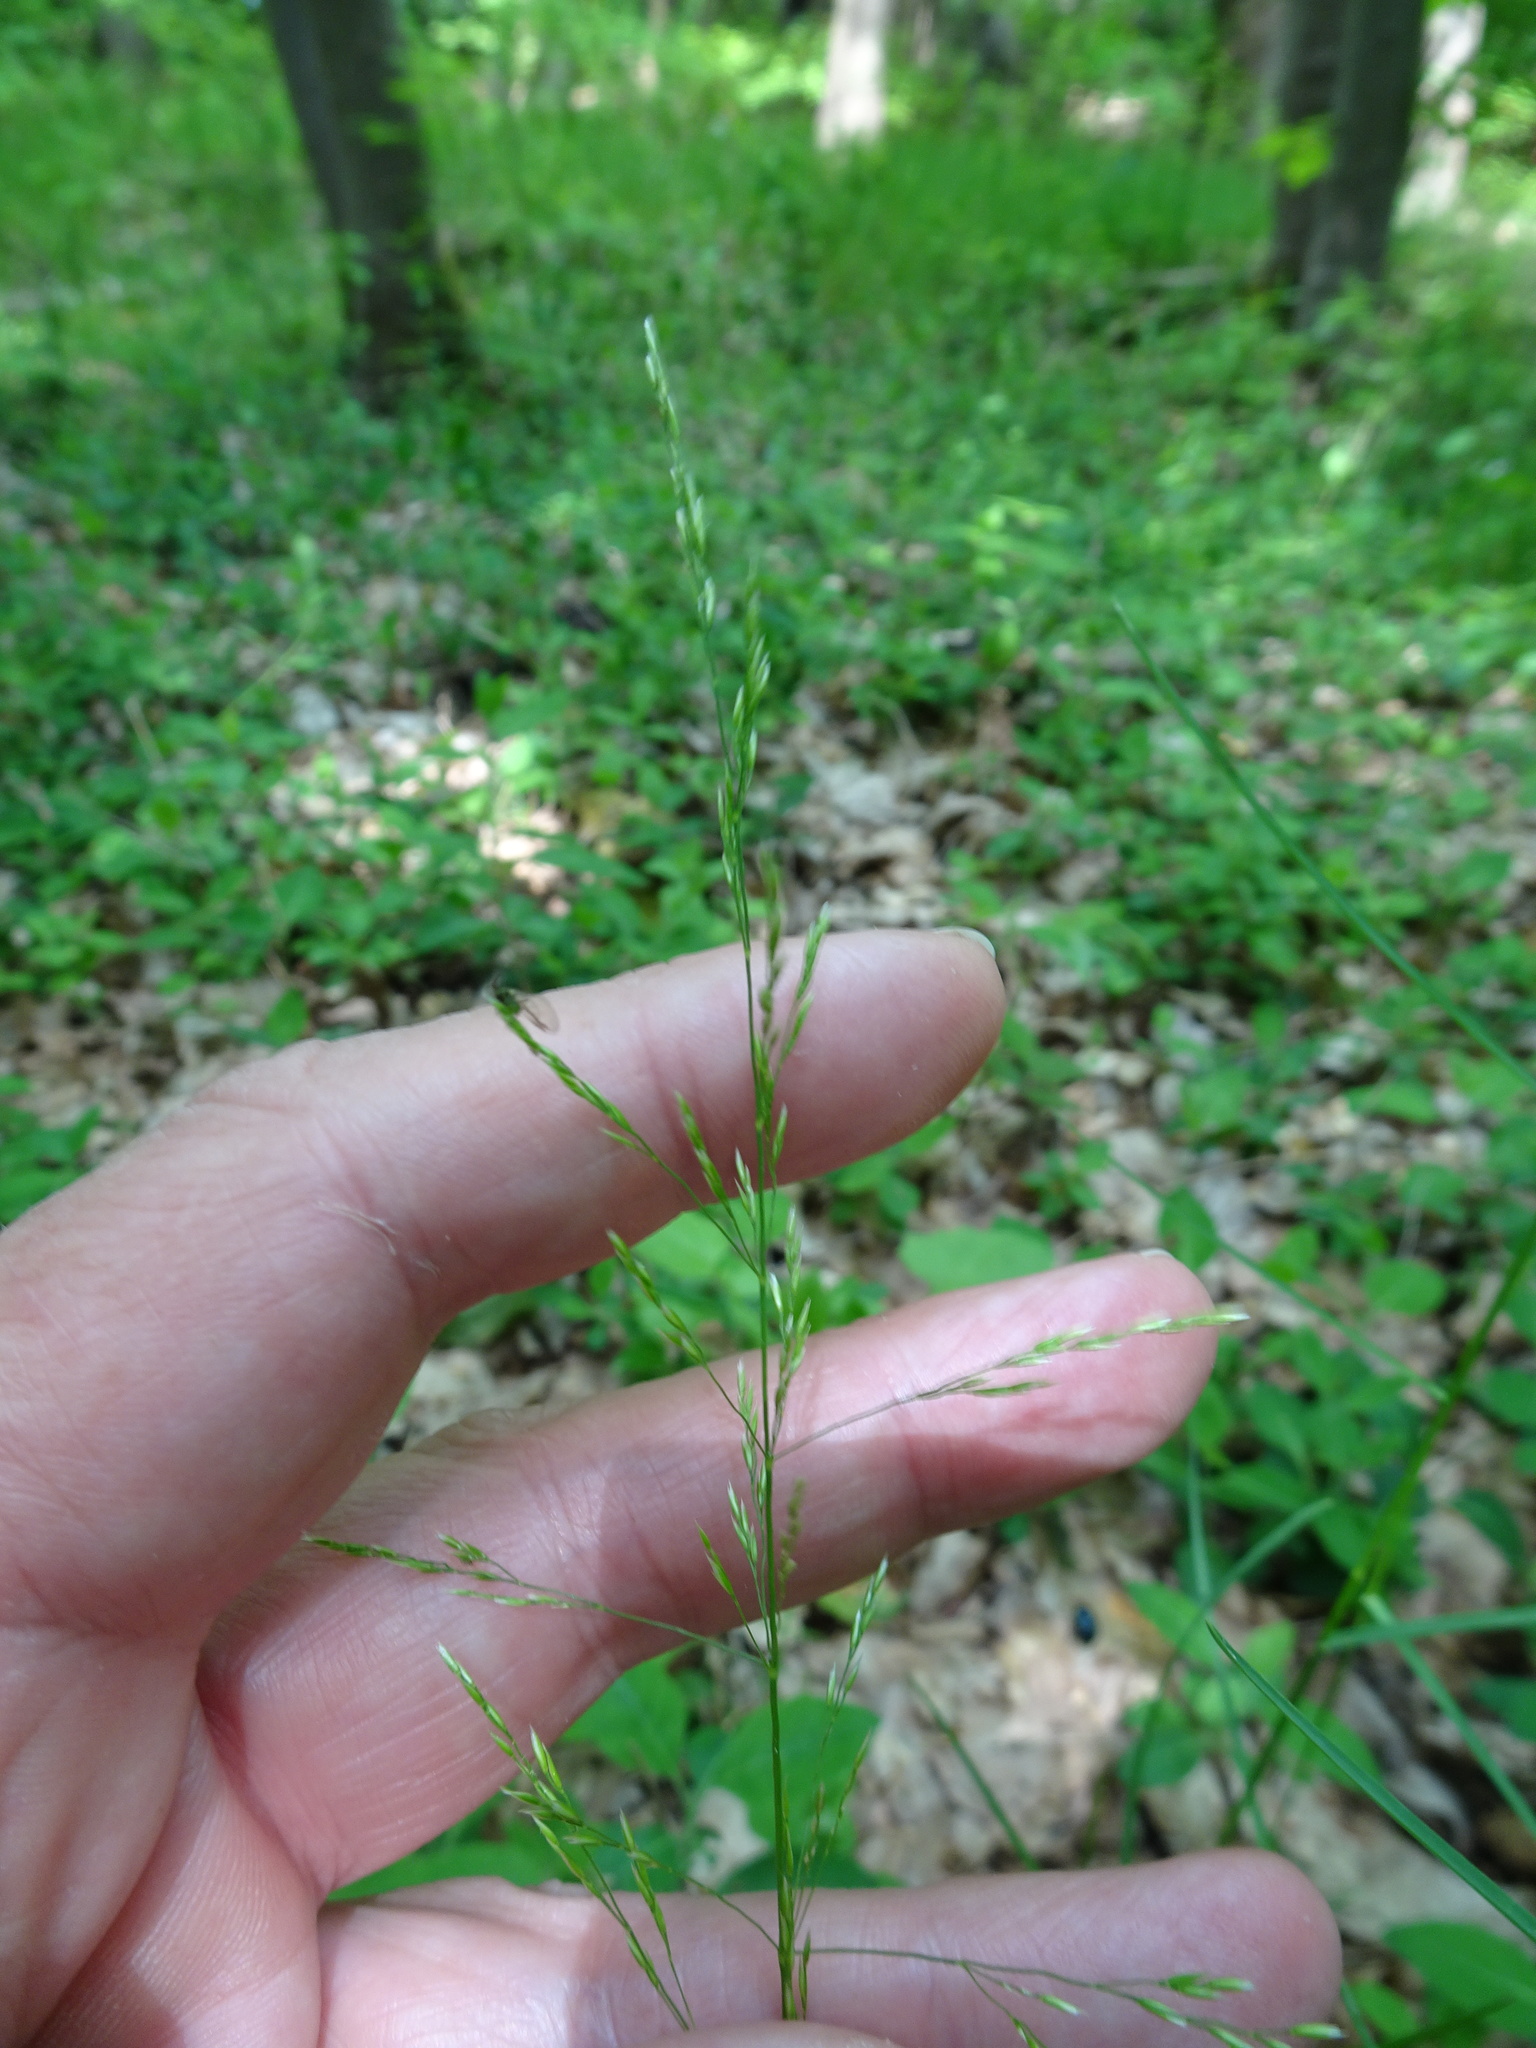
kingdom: Plantae
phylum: Tracheophyta
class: Liliopsida
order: Poales
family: Poaceae
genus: Poa
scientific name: Poa nemoralis
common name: Wood bluegrass
